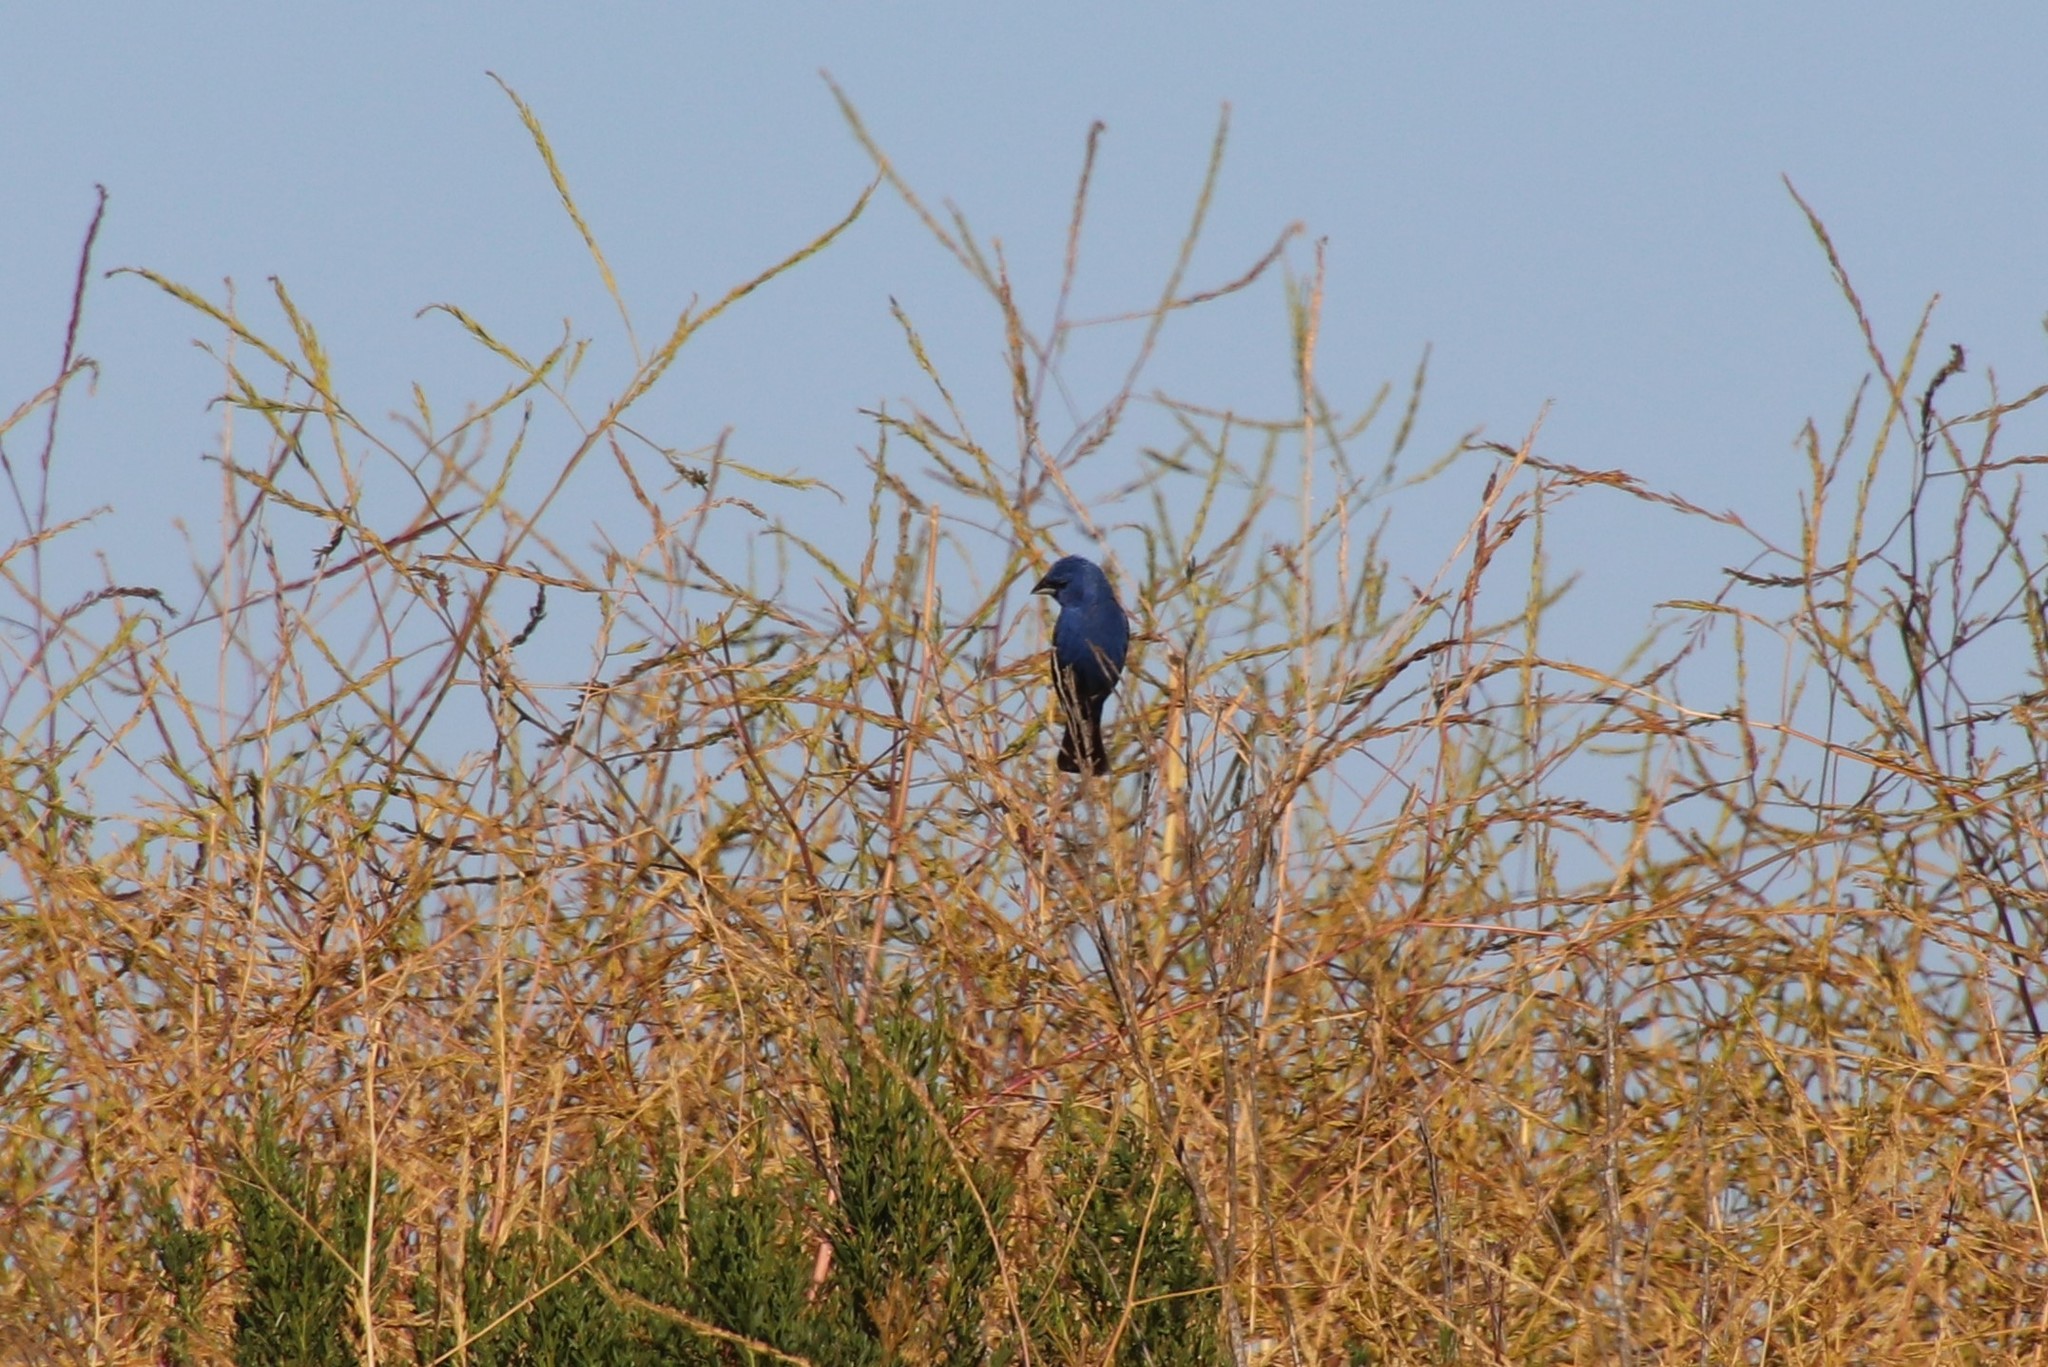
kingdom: Animalia
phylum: Chordata
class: Aves
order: Passeriformes
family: Cardinalidae
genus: Passerina
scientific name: Passerina caerulea
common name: Blue grosbeak
